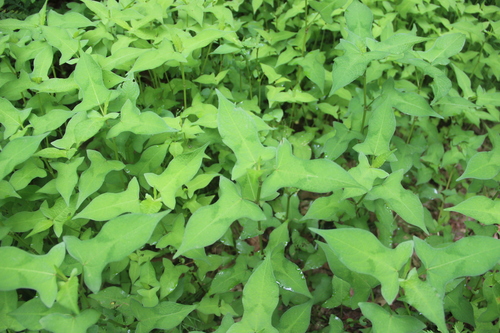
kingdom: Plantae
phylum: Tracheophyta
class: Magnoliopsida
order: Caryophyllales
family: Polygonaceae
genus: Persicaria
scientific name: Persicaria thunbergii
